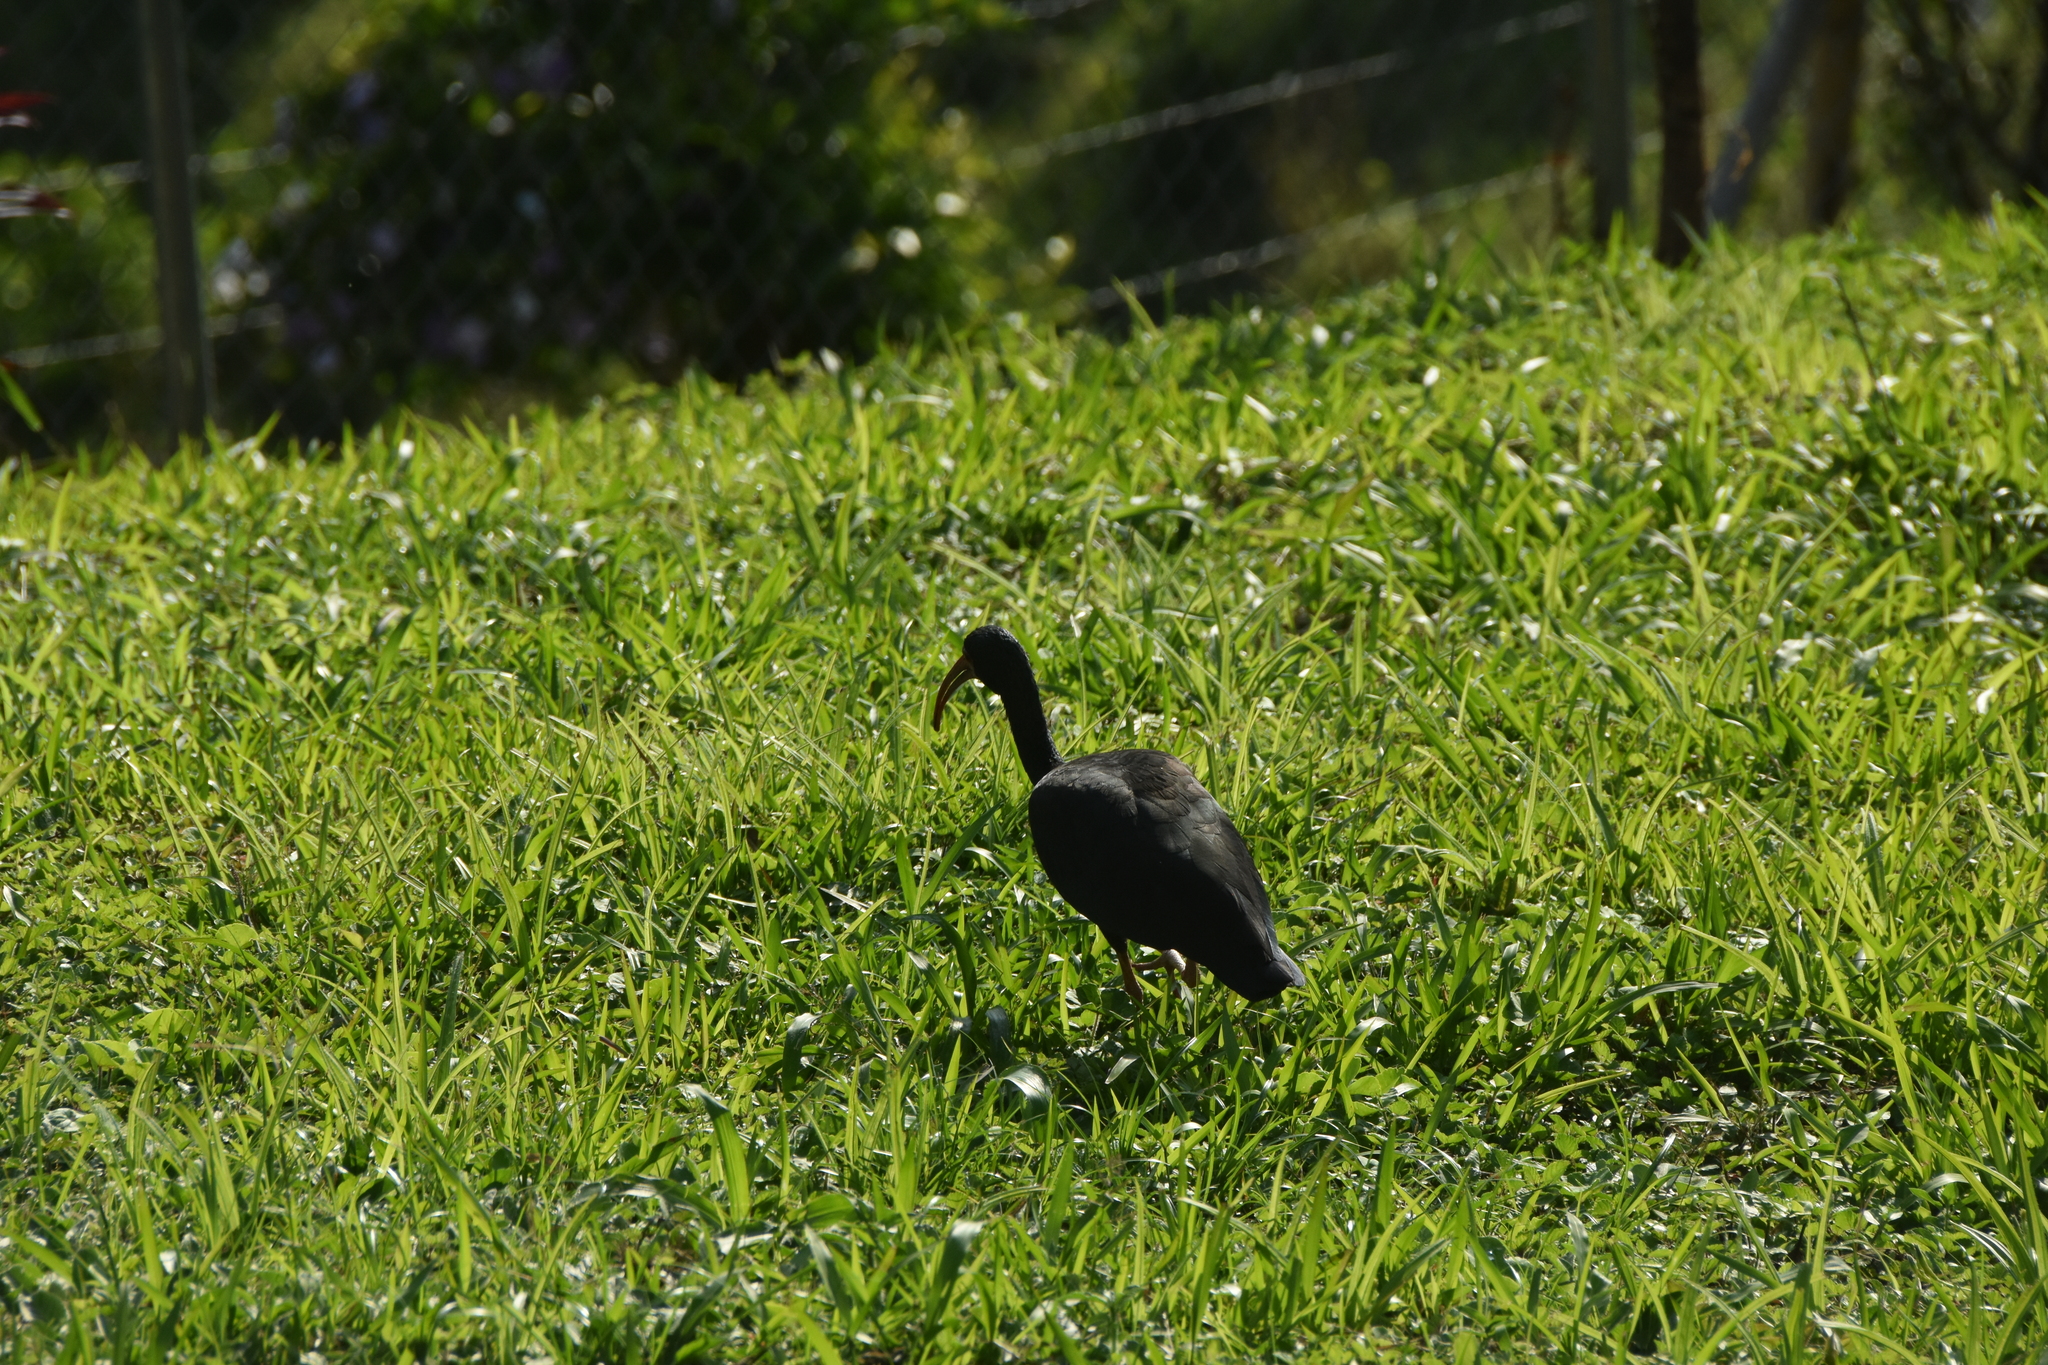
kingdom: Animalia
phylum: Chordata
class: Aves
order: Pelecaniformes
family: Threskiornithidae
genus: Phimosus
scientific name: Phimosus infuscatus
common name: Bare-faced ibis
